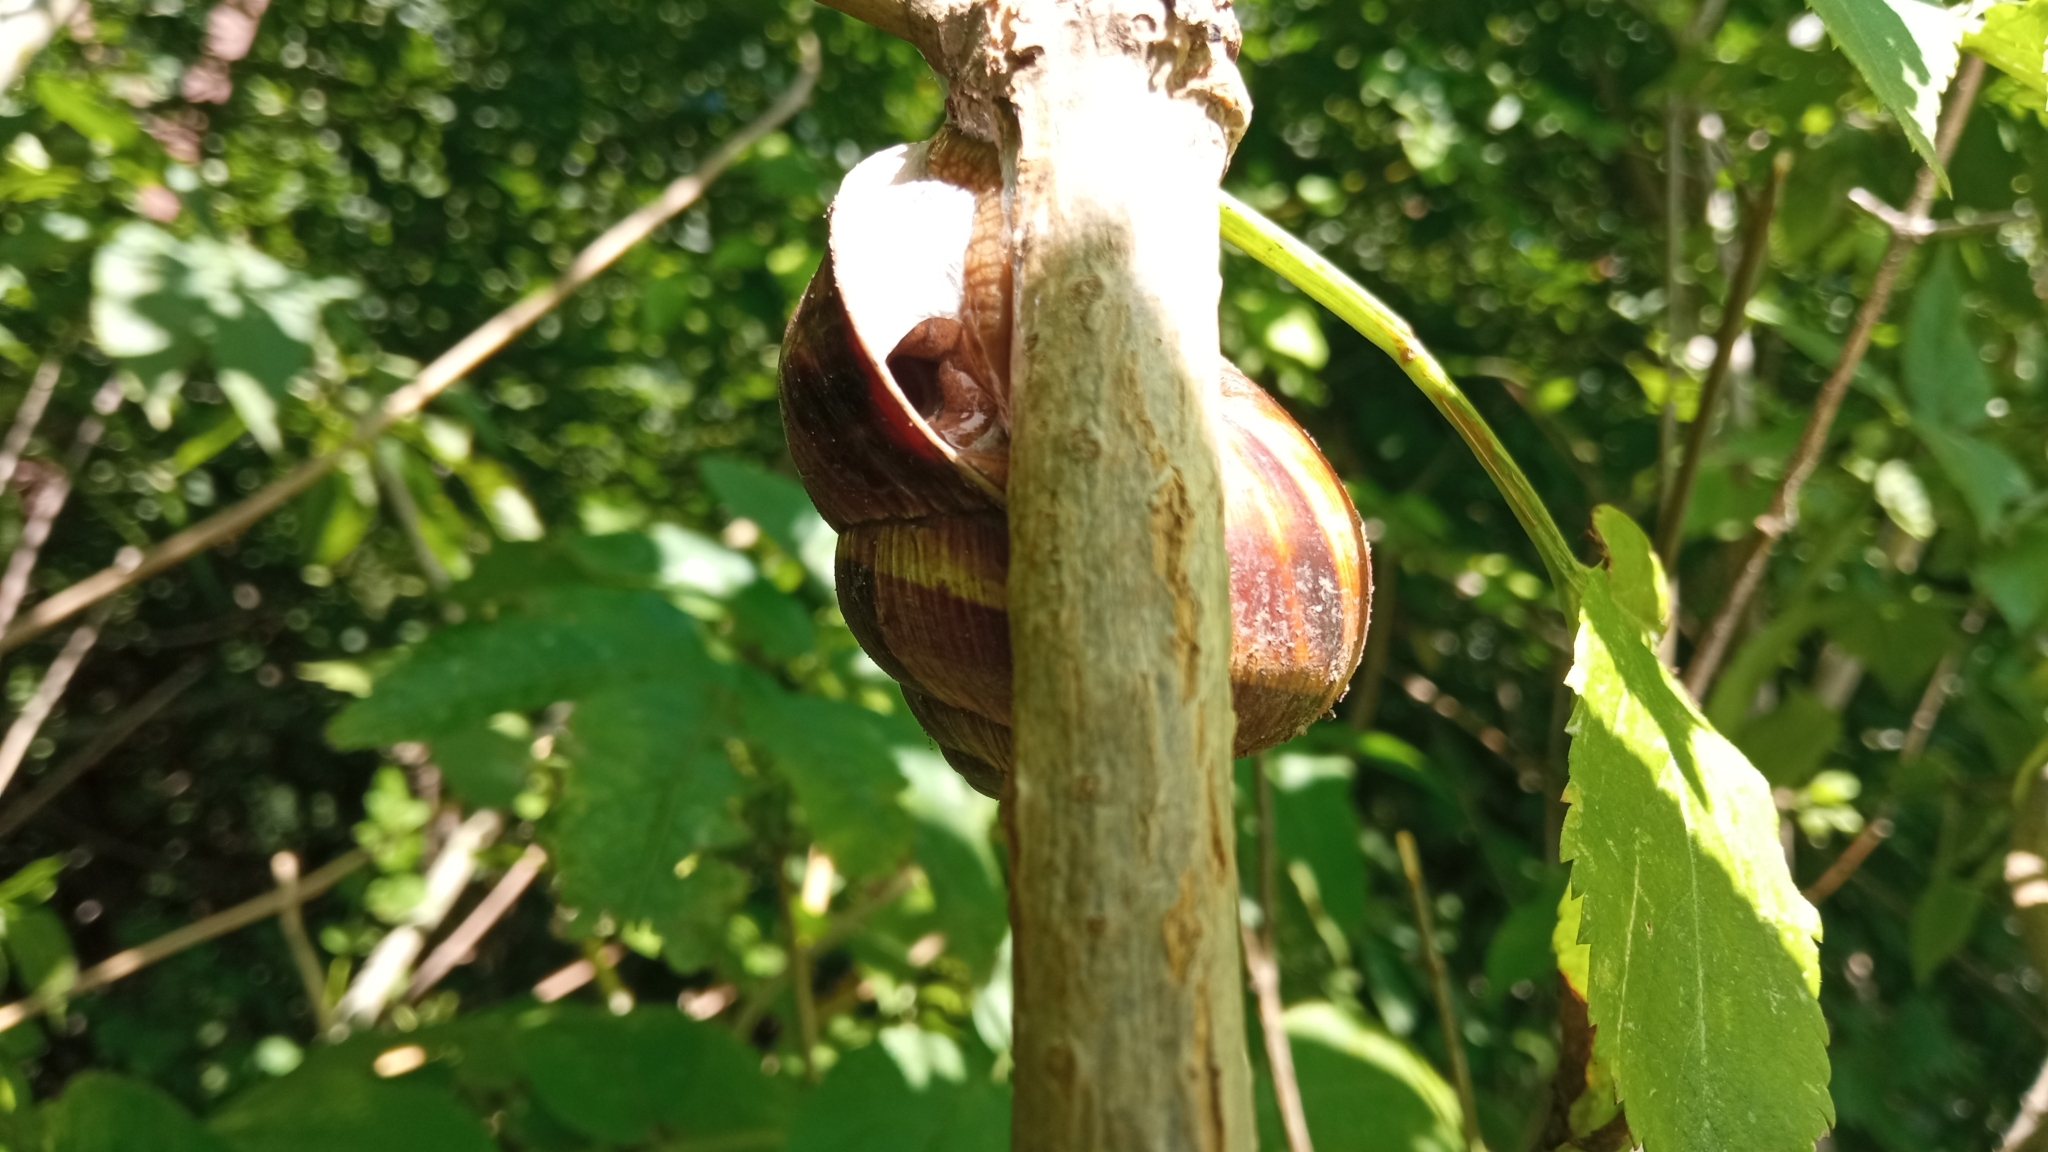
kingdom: Animalia
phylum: Mollusca
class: Gastropoda
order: Stylommatophora
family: Helicidae
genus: Helix
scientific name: Helix lucorum
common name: Turkish snail
